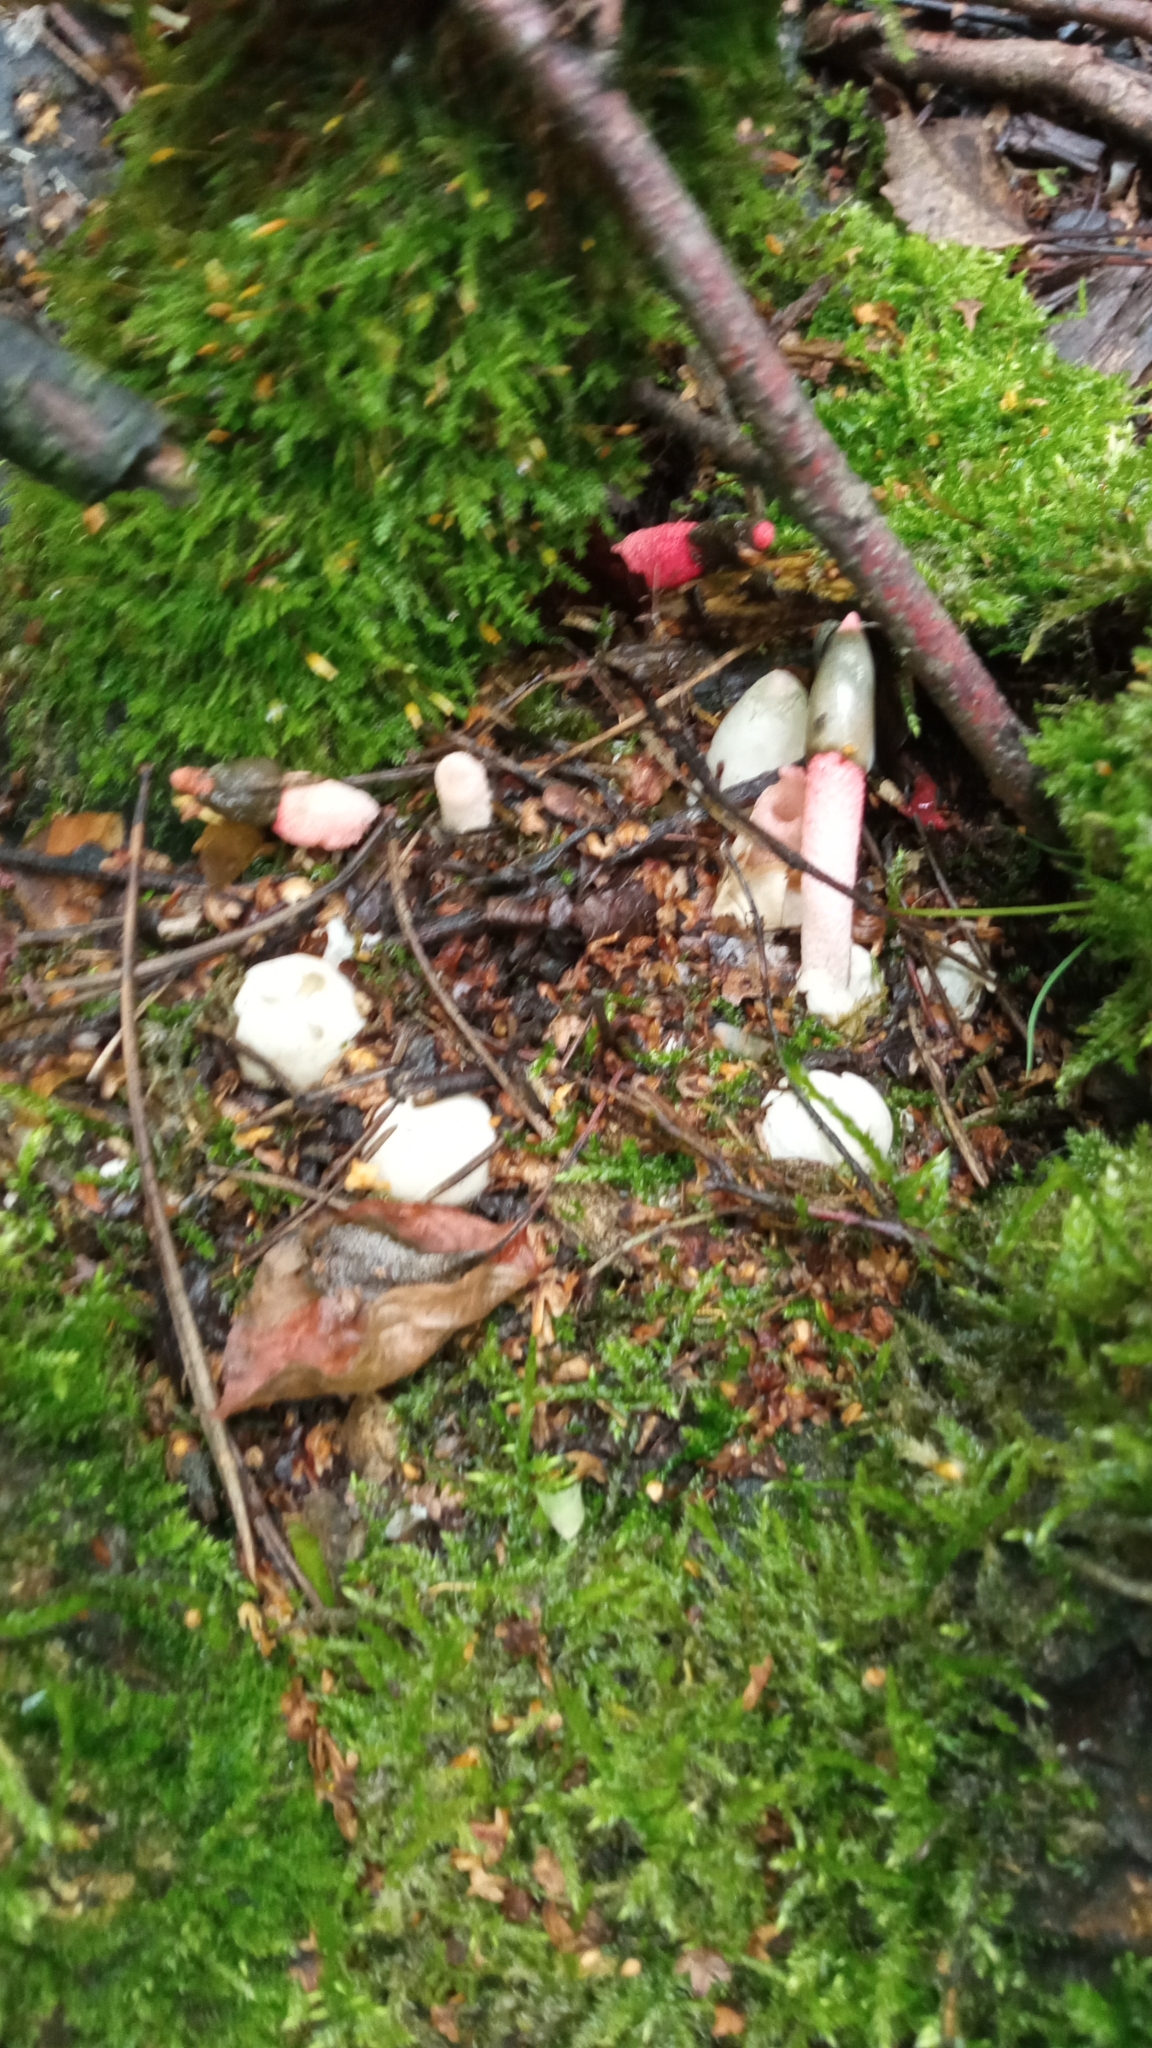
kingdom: Fungi
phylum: Basidiomycota
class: Agaricomycetes
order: Phallales
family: Phallaceae
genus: Mutinus
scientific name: Mutinus ravenelii
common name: Red stinkhorn
